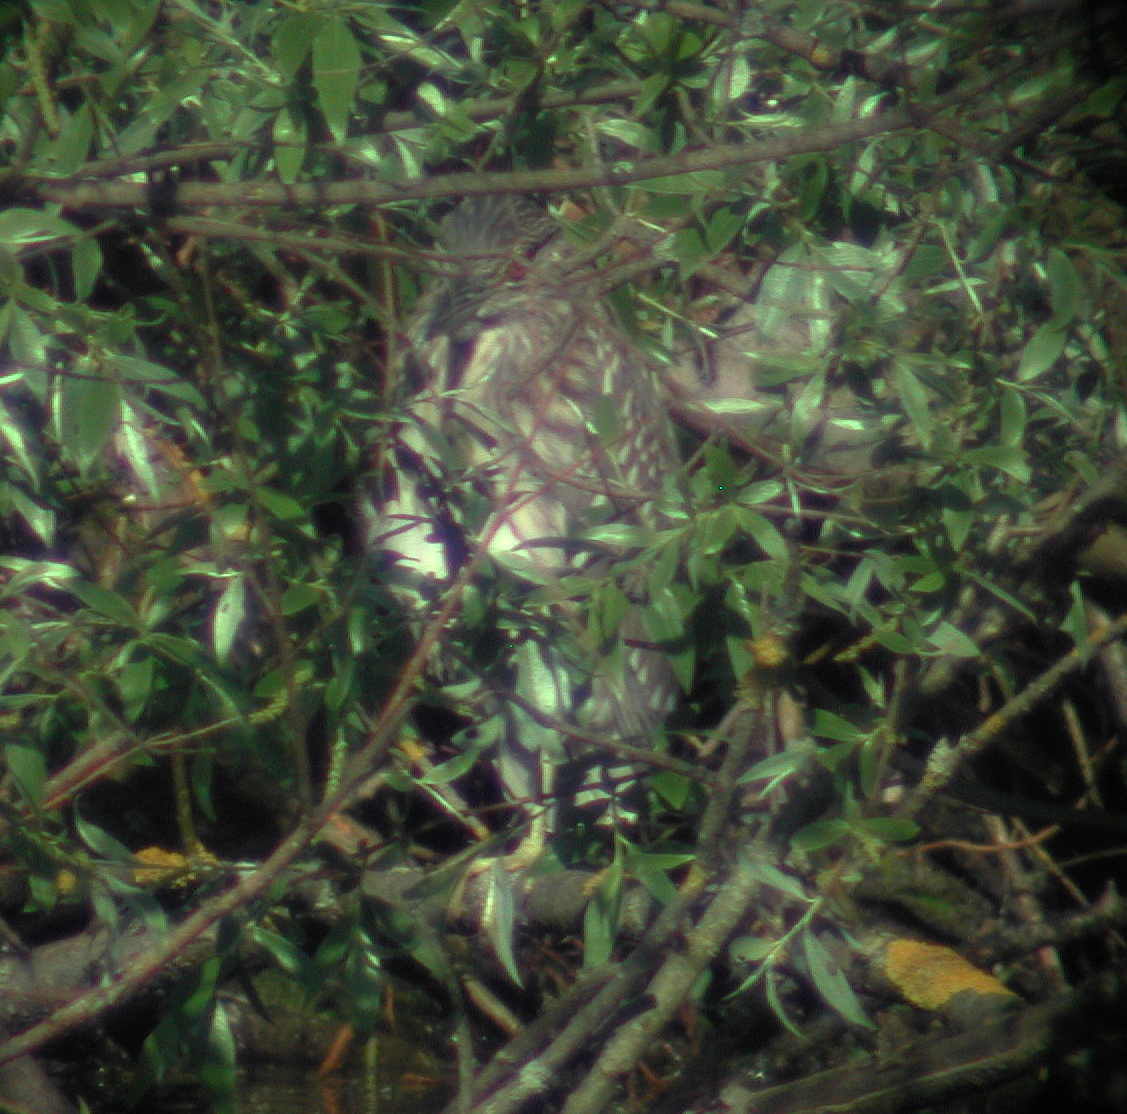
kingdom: Animalia
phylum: Chordata
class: Aves
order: Pelecaniformes
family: Ardeidae
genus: Nycticorax
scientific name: Nycticorax nycticorax
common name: Black-crowned night heron
